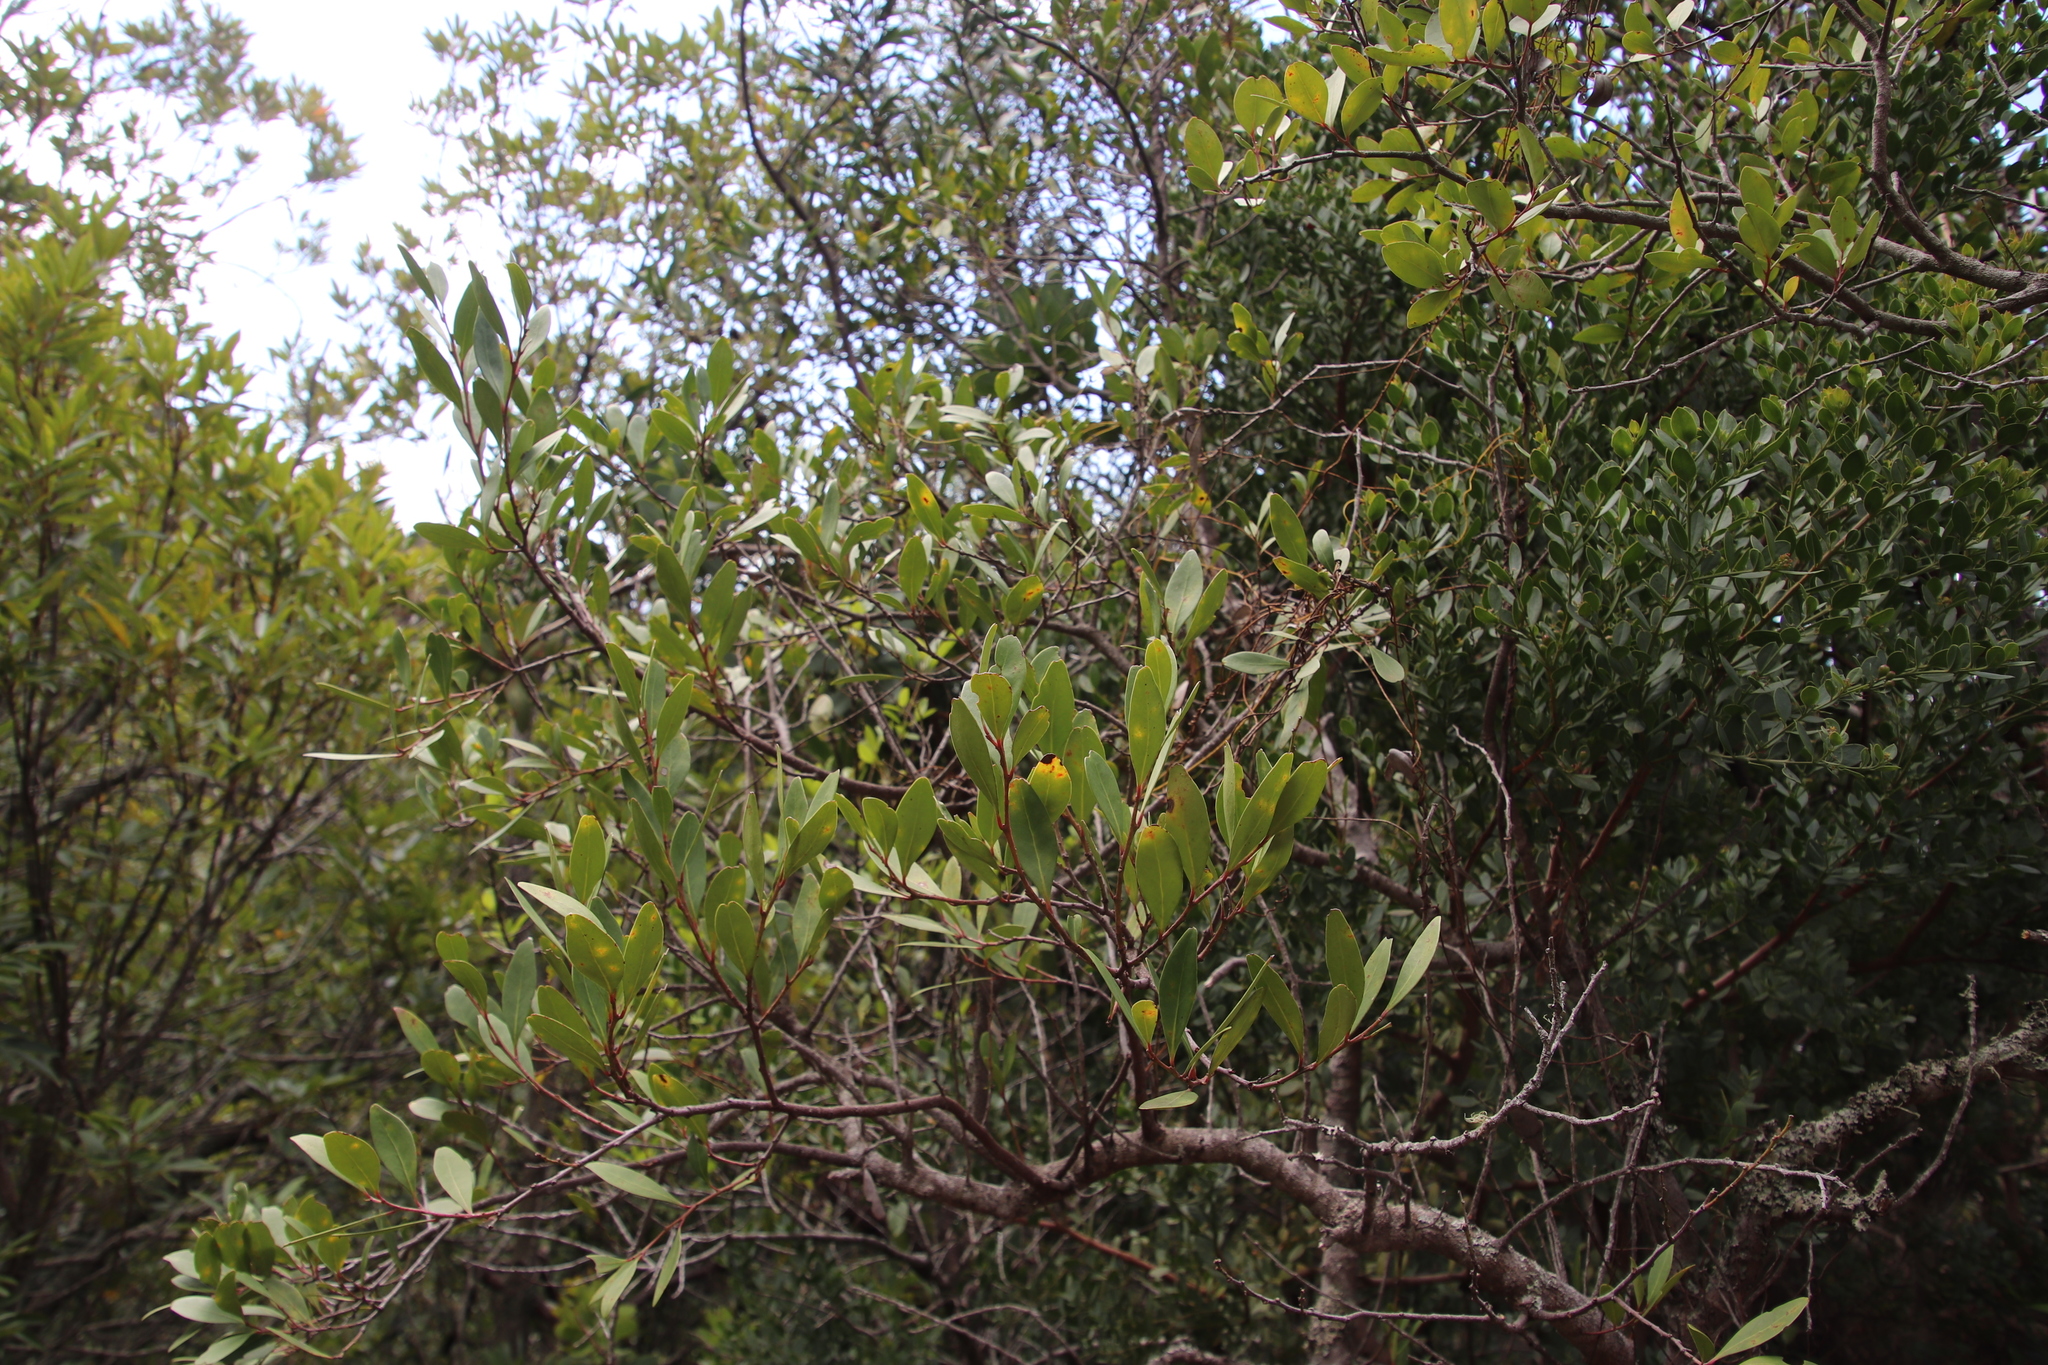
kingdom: Plantae
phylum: Tracheophyta
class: Magnoliopsida
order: Celastrales
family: Celastraceae
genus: Gymnosporia
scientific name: Gymnosporia laurina
